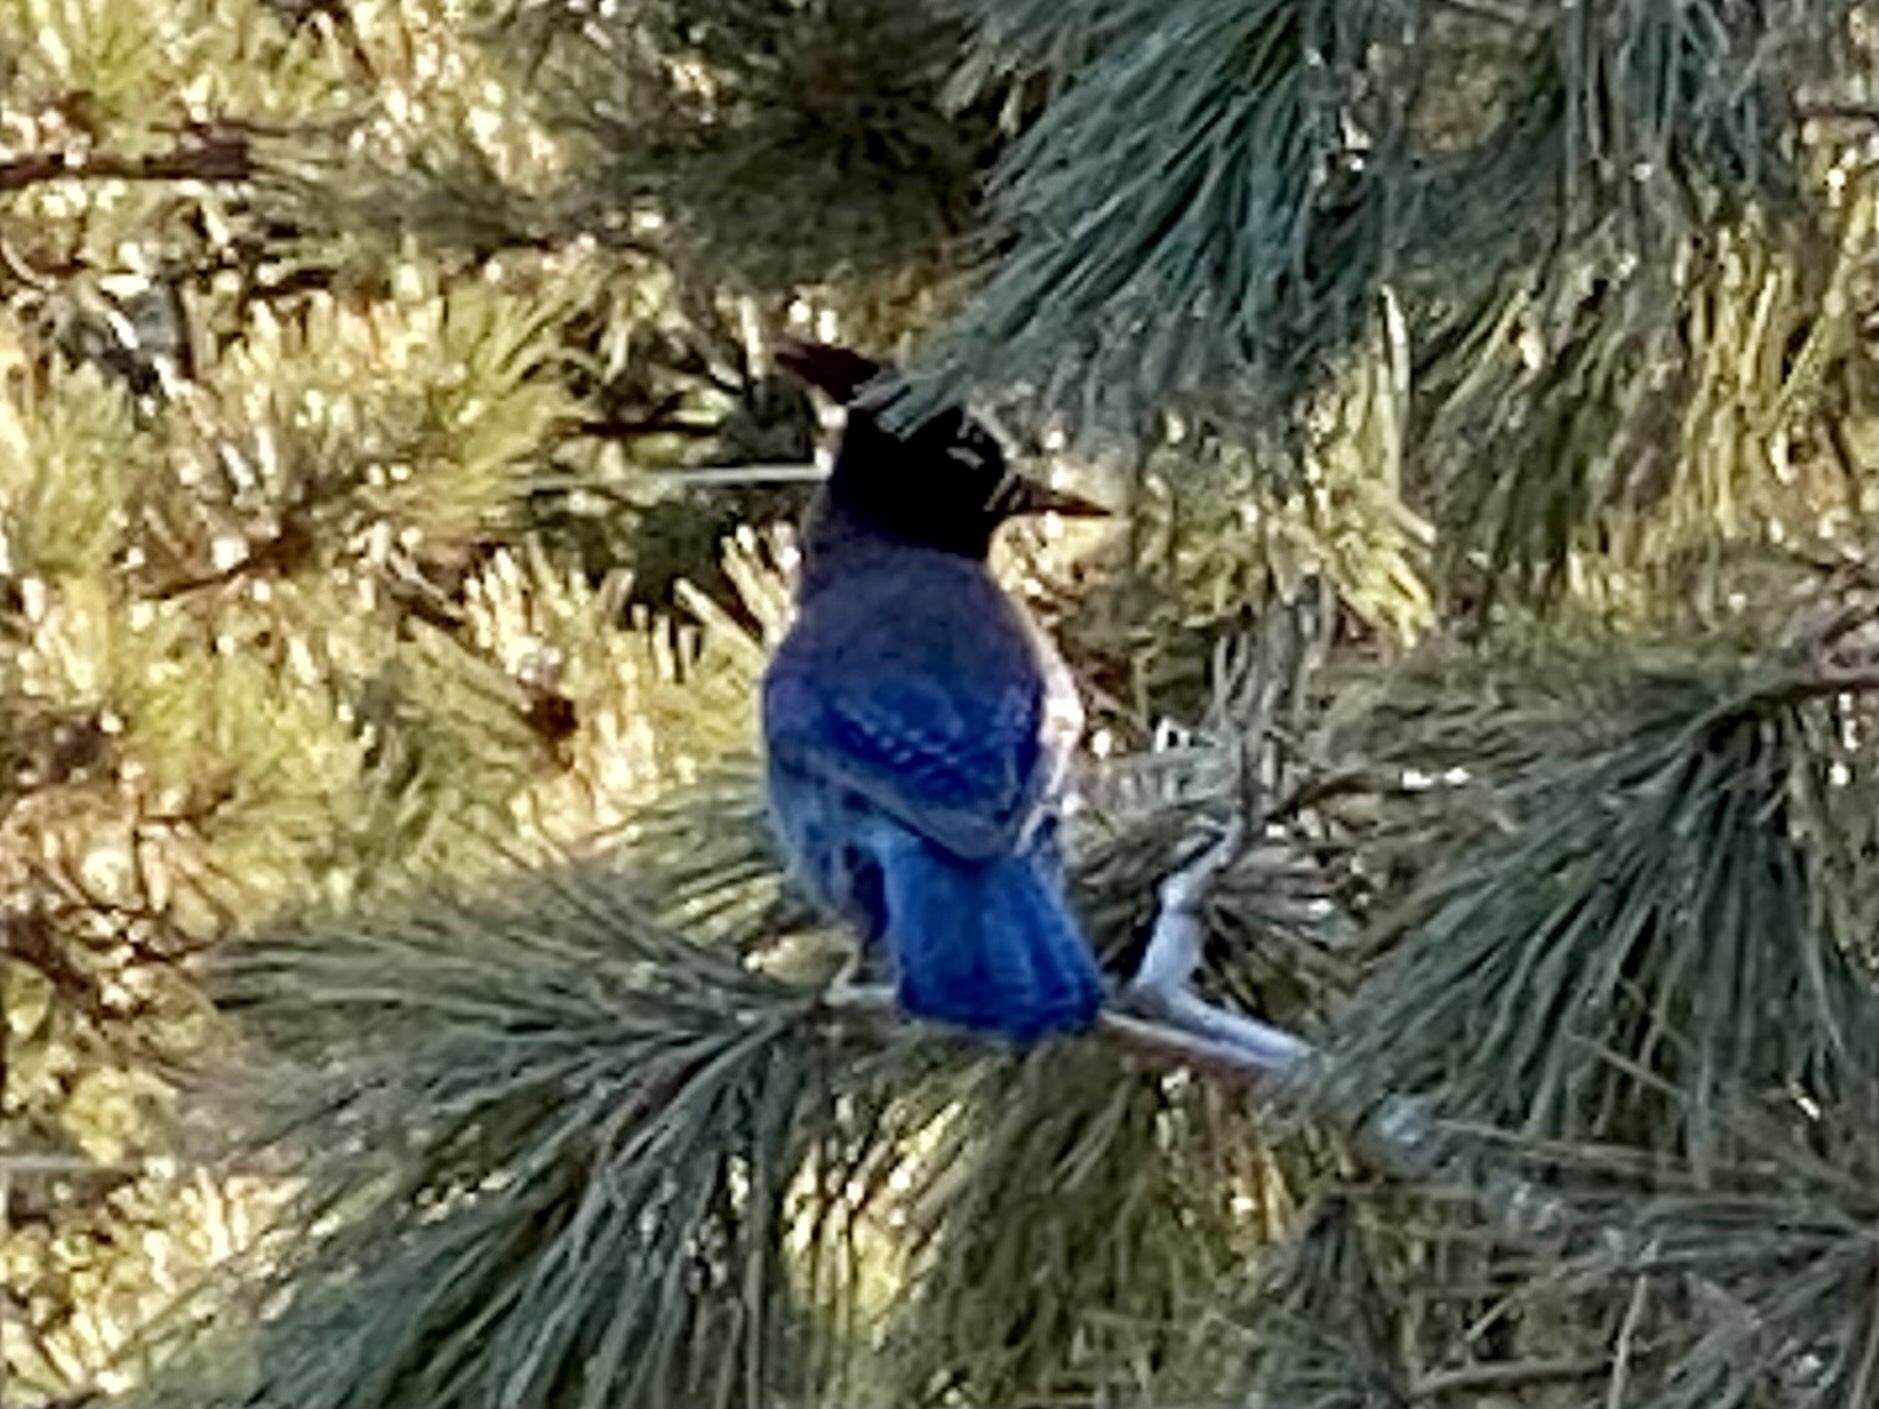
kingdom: Animalia
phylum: Chordata
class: Aves
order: Passeriformes
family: Corvidae
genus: Cyanocitta
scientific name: Cyanocitta stelleri
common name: Steller's jay
